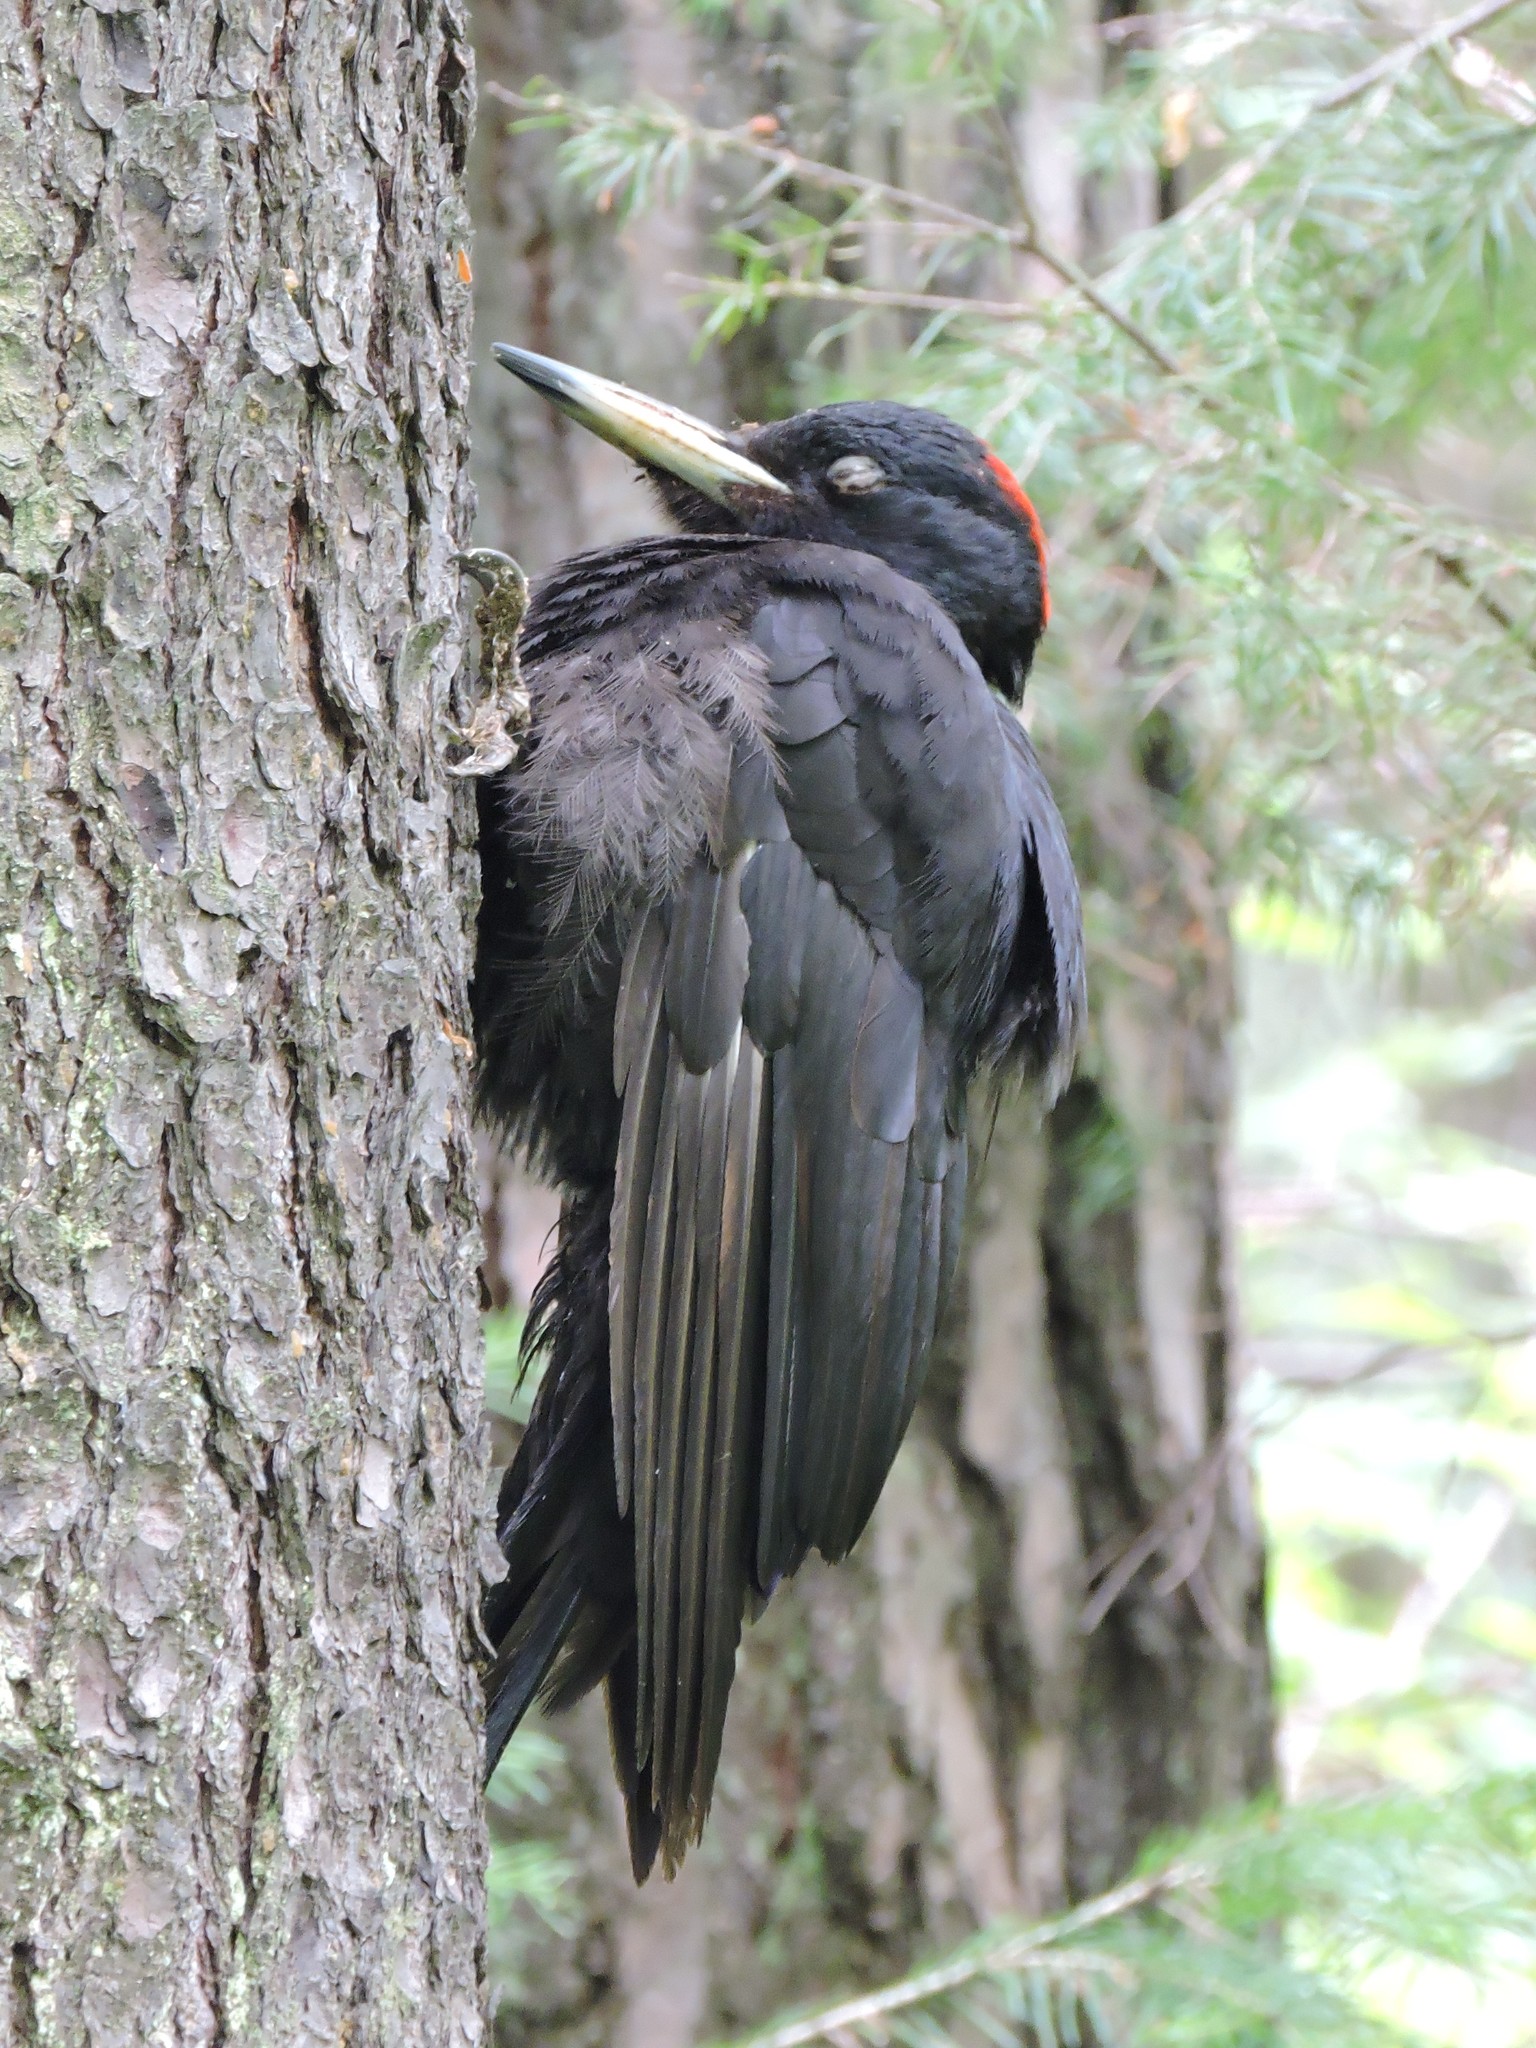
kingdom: Animalia
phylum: Chordata
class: Aves
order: Piciformes
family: Picidae
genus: Dryocopus
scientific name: Dryocopus martius
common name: Black woodpecker
